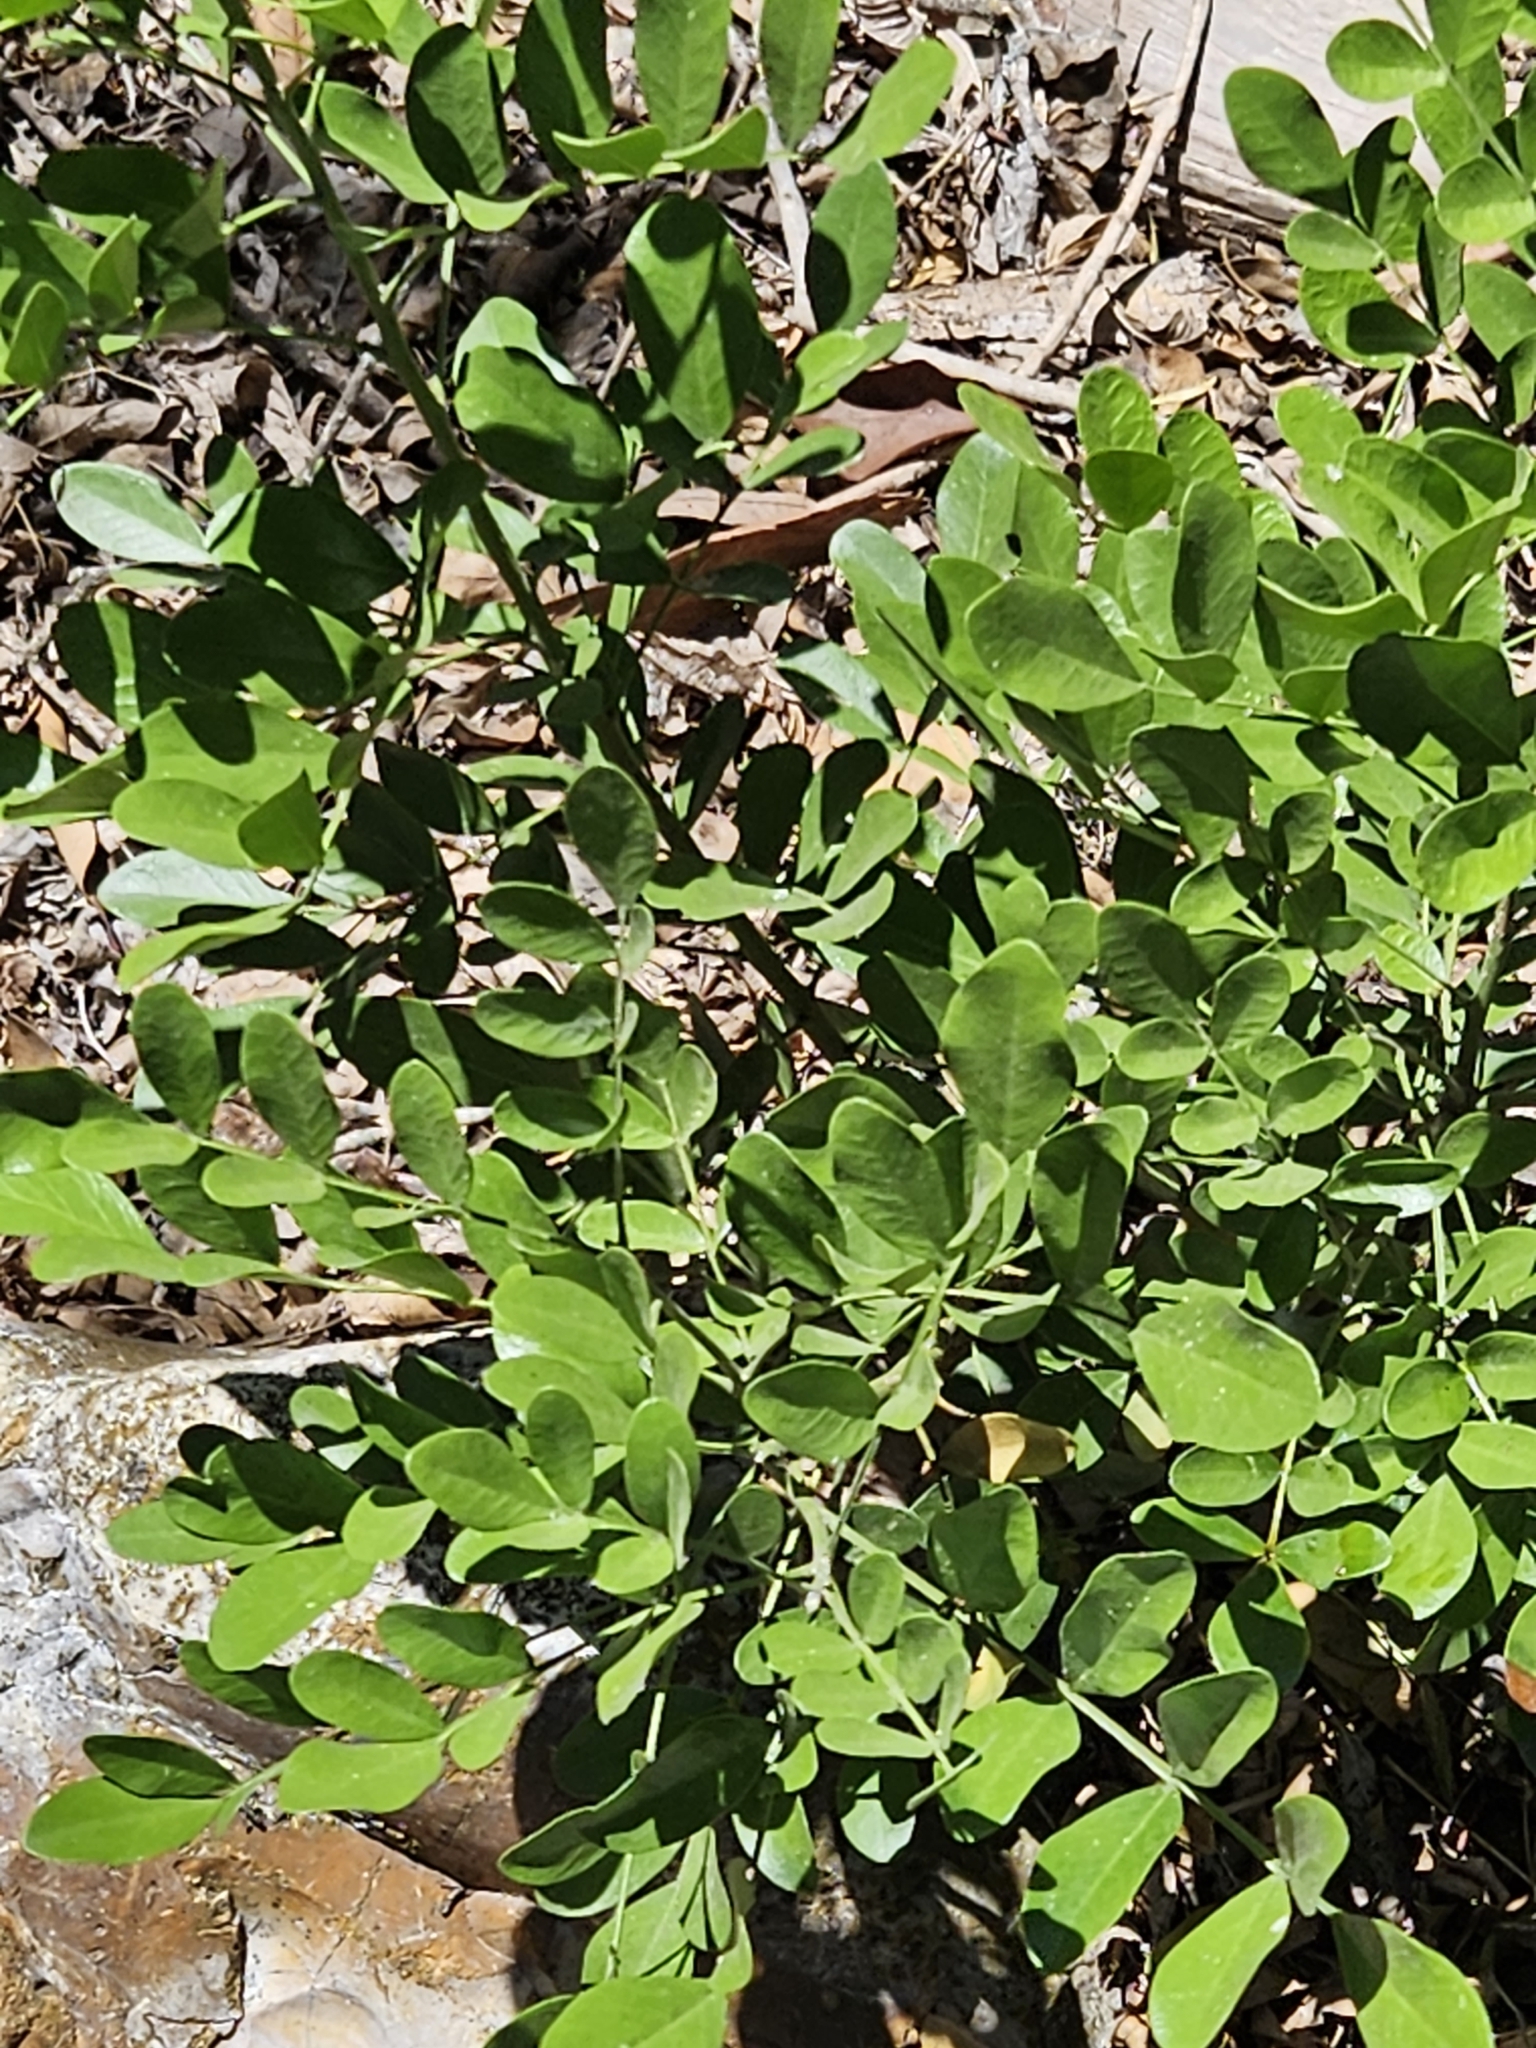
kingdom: Plantae
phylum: Tracheophyta
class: Magnoliopsida
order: Fabales
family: Fabaceae
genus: Dermatophyllum
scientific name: Dermatophyllum secundiflorum
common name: Texas-mountain-laurel
